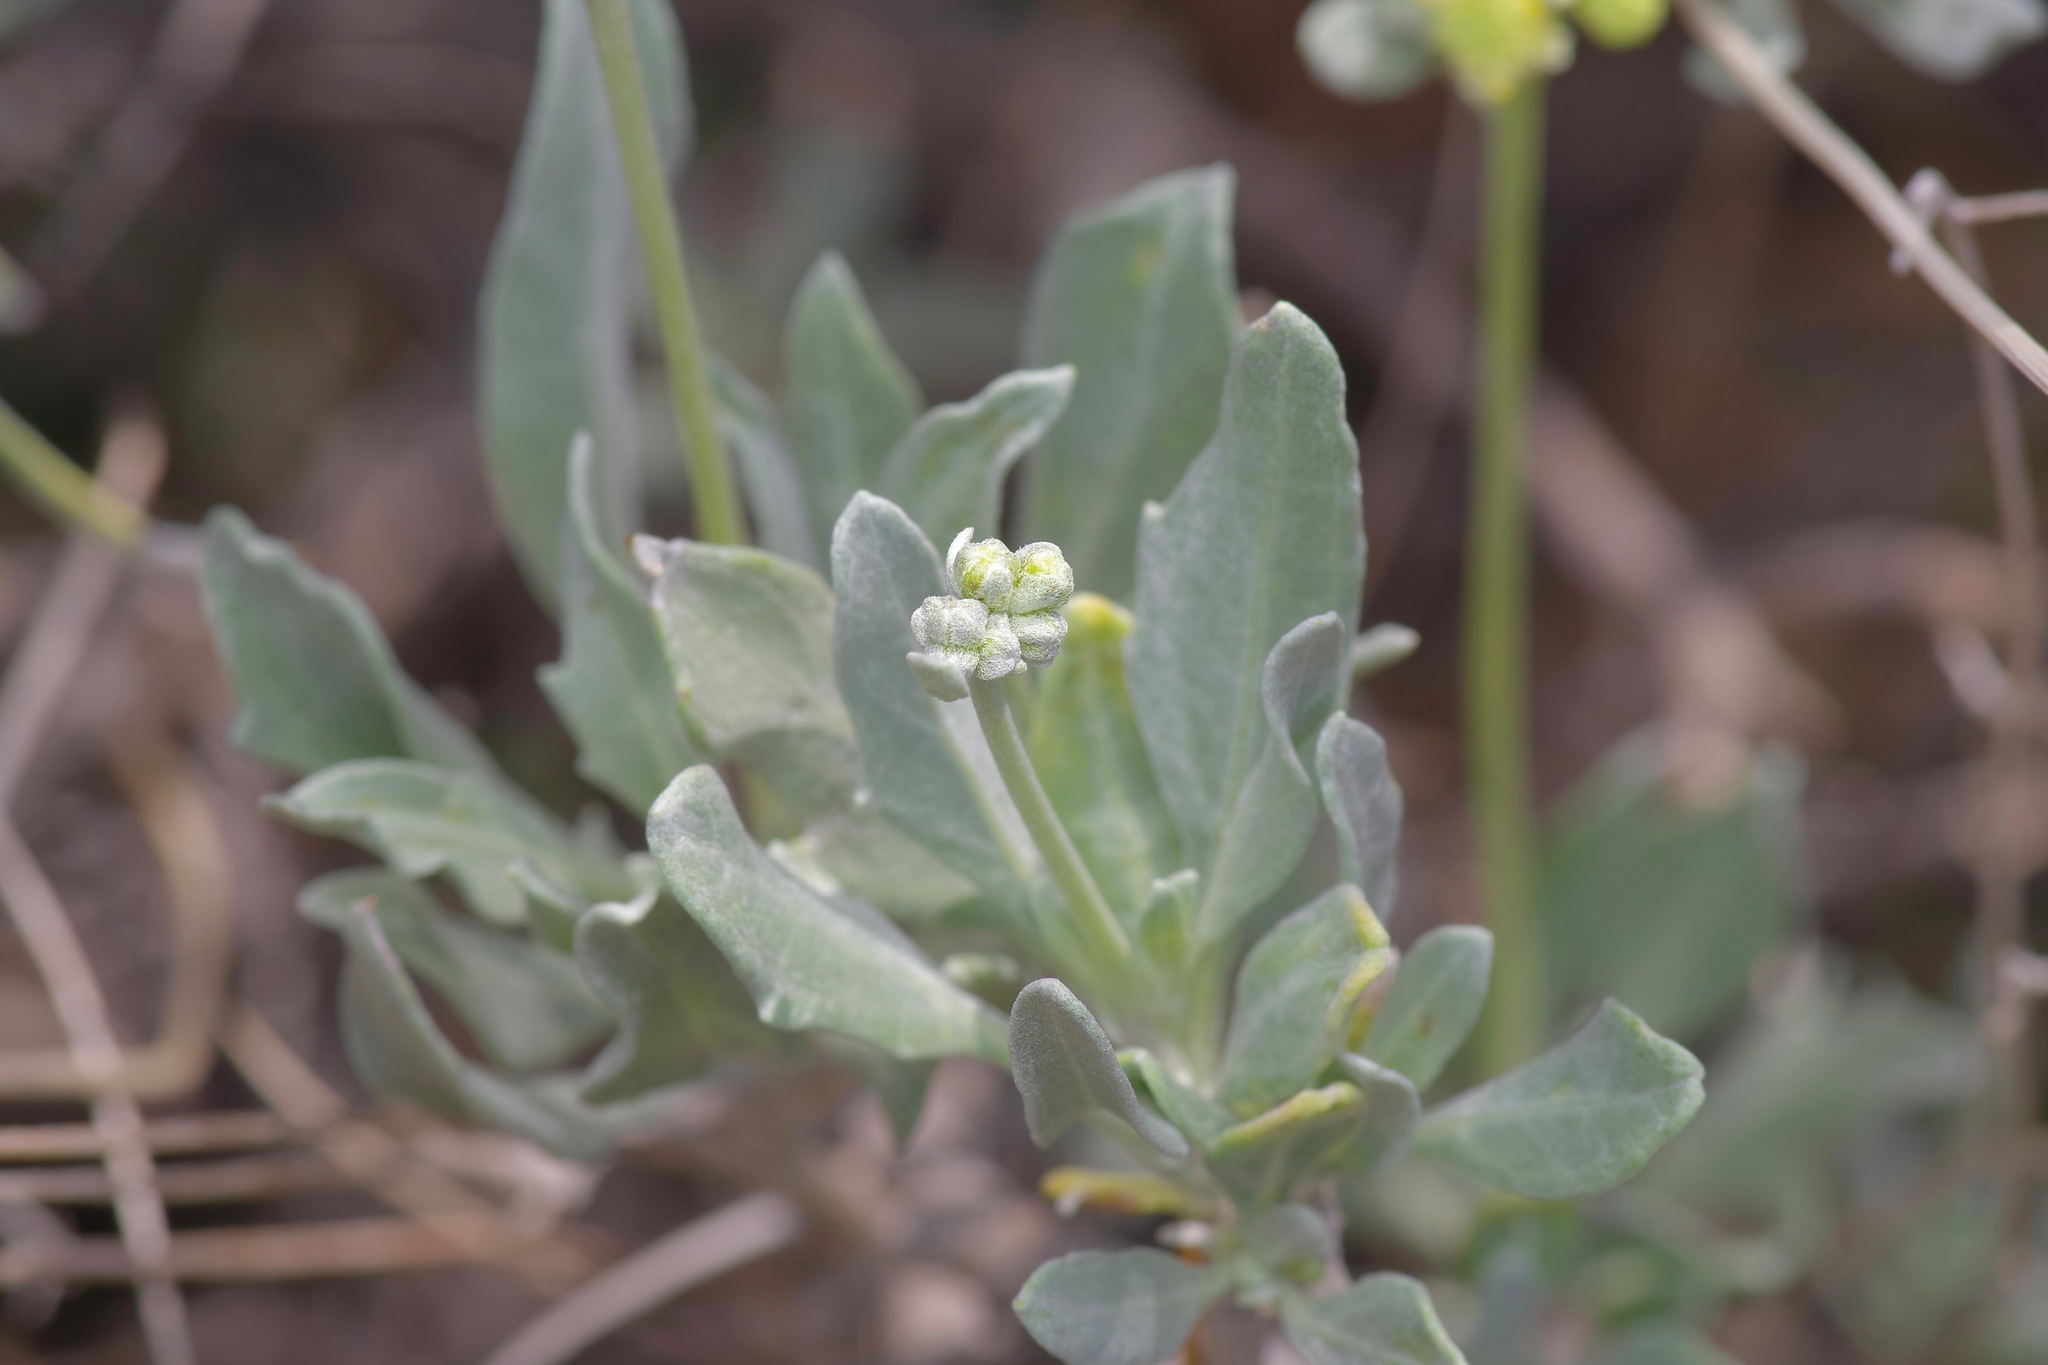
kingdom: Plantae
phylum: Tracheophyta
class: Magnoliopsida
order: Asterales
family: Asteraceae
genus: Parthenium
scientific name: Parthenium argentatum
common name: Guayule
